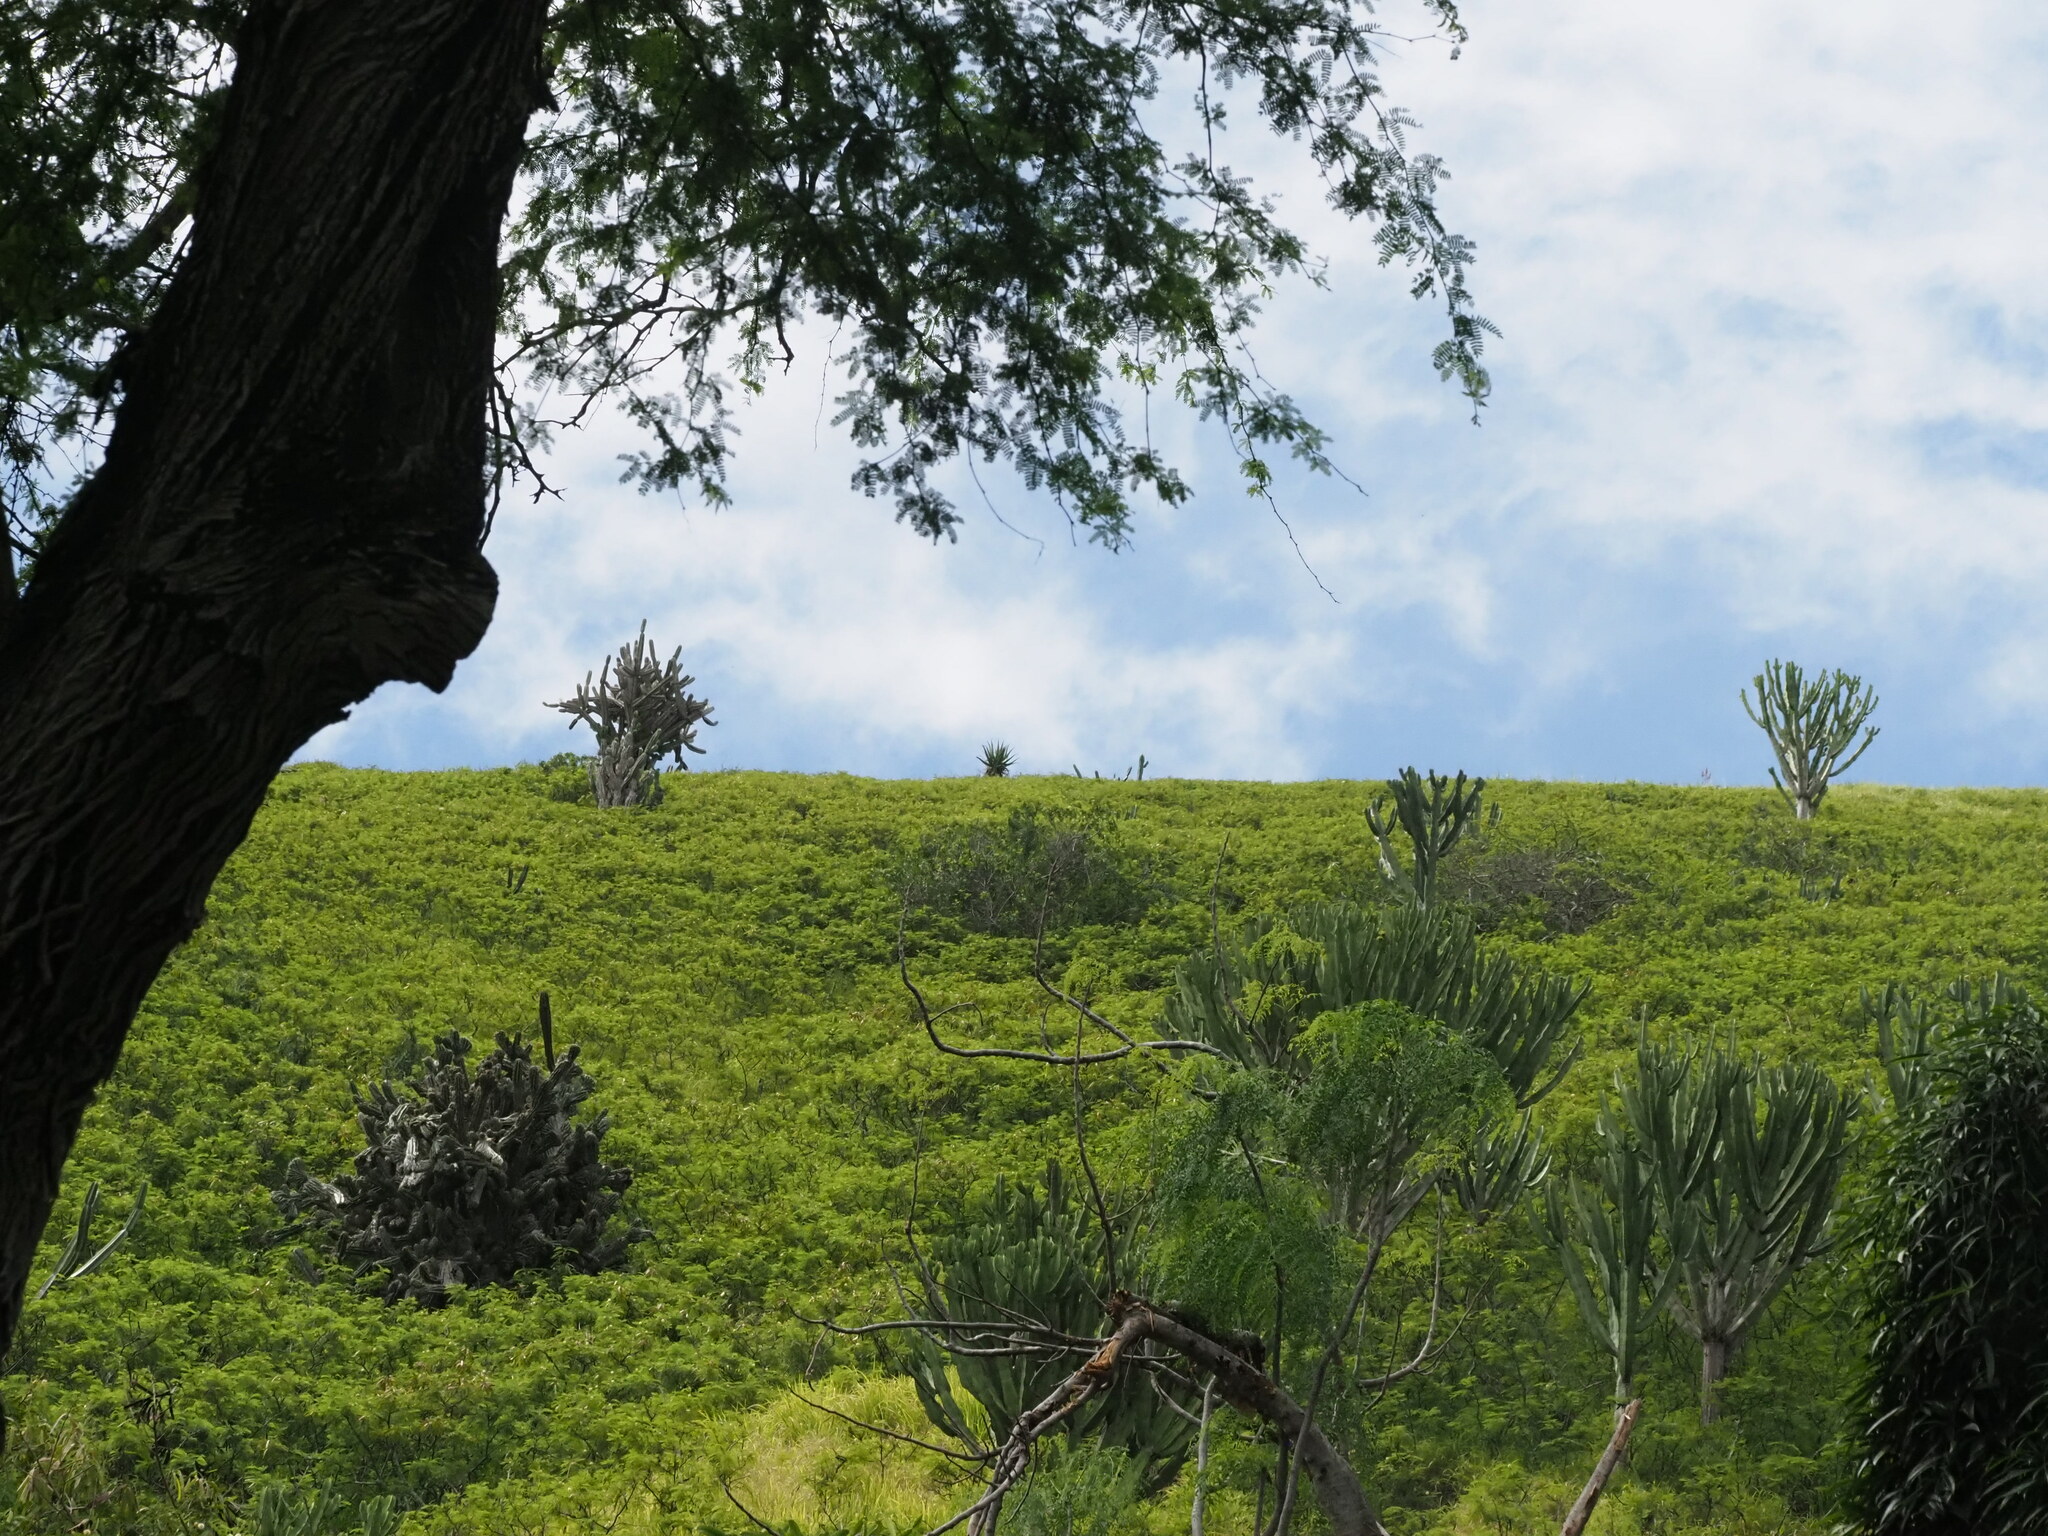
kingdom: Plantae
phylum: Tracheophyta
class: Magnoliopsida
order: Malpighiales
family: Euphorbiaceae
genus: Euphorbia
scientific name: Euphorbia ingens
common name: Cactus spurge
